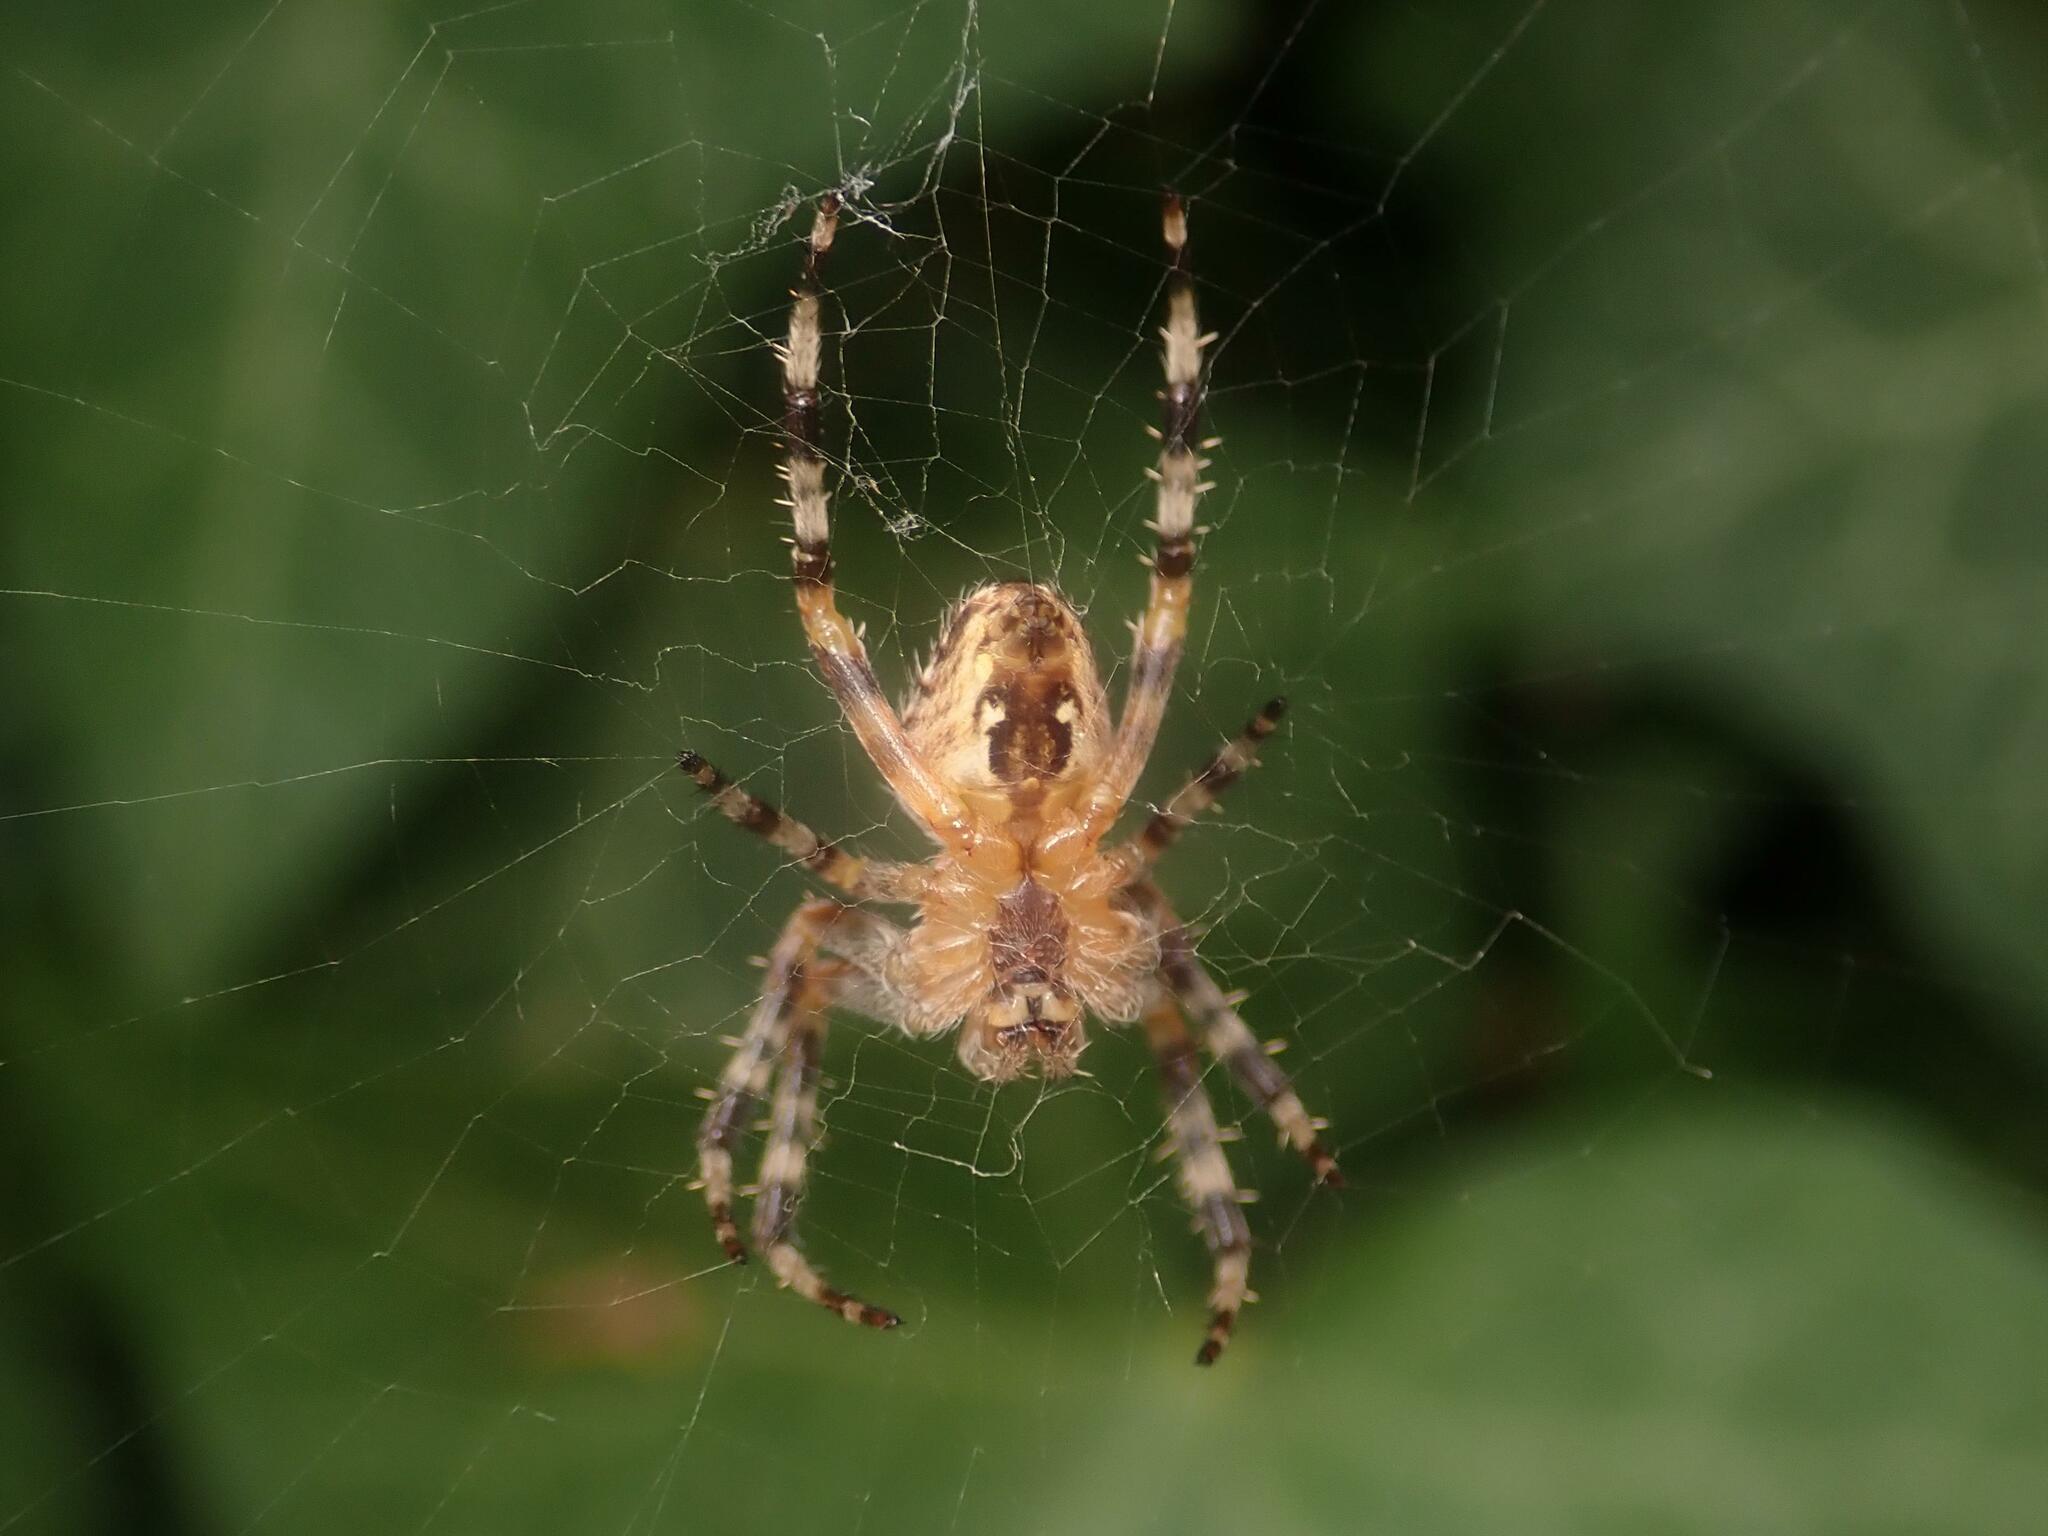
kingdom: Animalia
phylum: Arthropoda
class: Arachnida
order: Araneae
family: Araneidae
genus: Araneus
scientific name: Araneus diadematus
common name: Cross orbweaver
